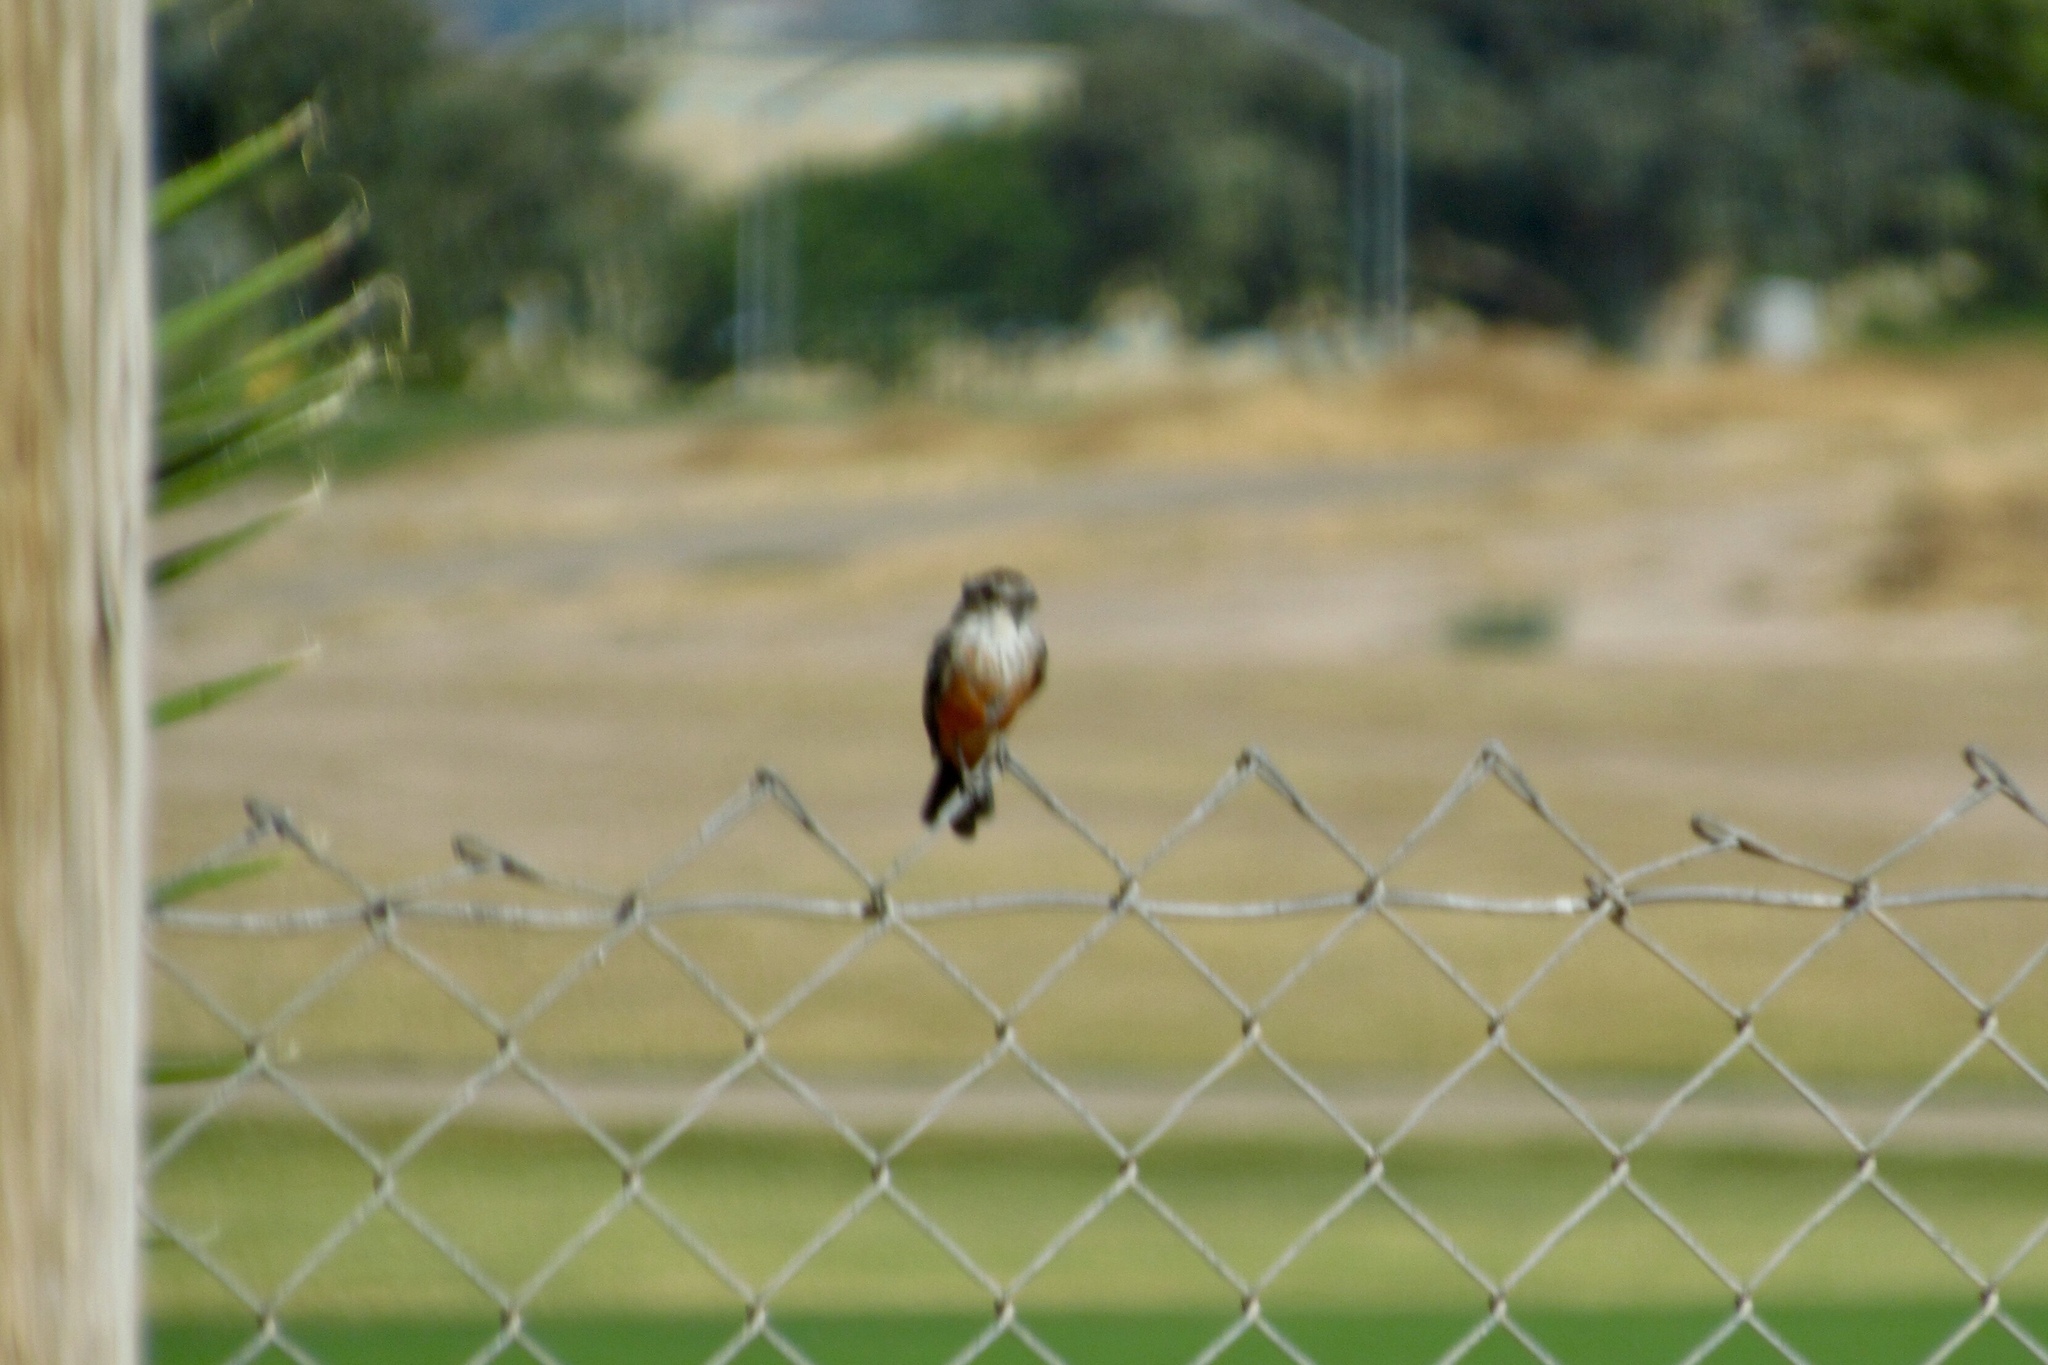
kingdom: Animalia
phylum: Chordata
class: Aves
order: Passeriformes
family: Tyrannidae
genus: Pyrocephalus
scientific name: Pyrocephalus rubinus
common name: Vermilion flycatcher
